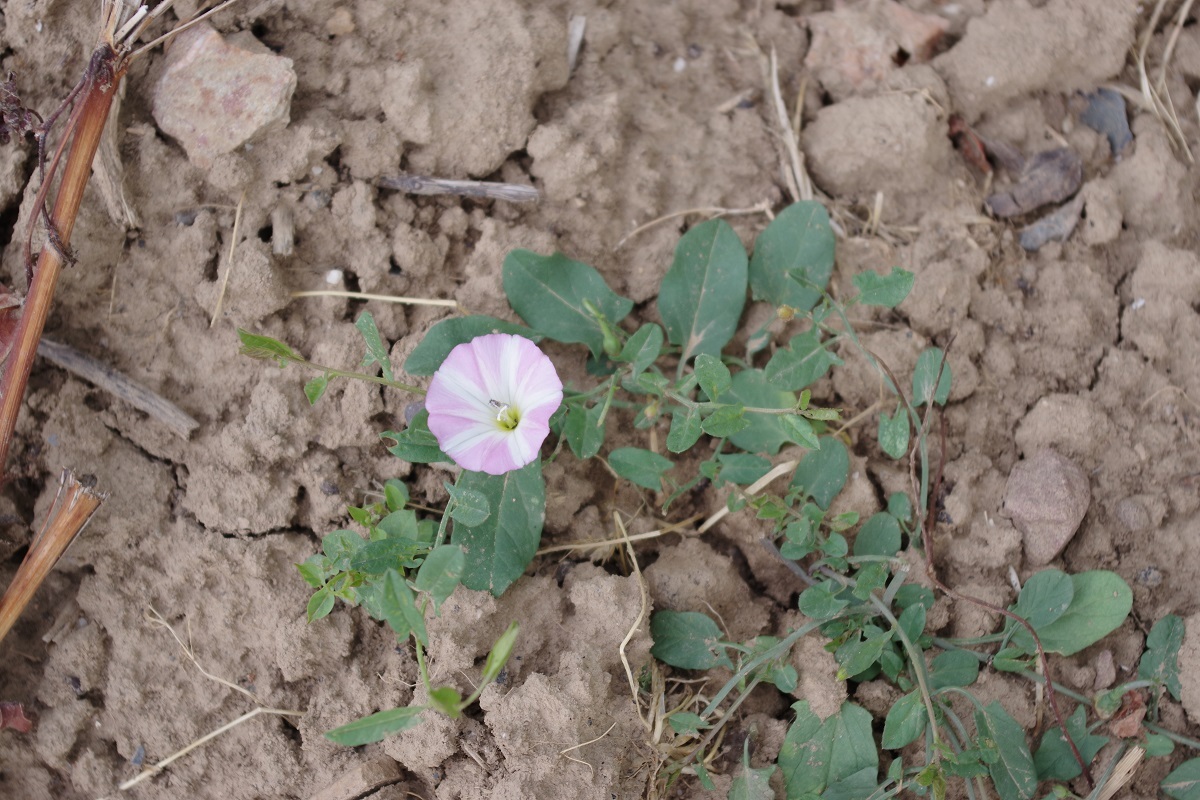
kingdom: Plantae
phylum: Tracheophyta
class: Magnoliopsida
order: Solanales
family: Convolvulaceae
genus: Convolvulus
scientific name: Convolvulus arvensis
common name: Field bindweed
